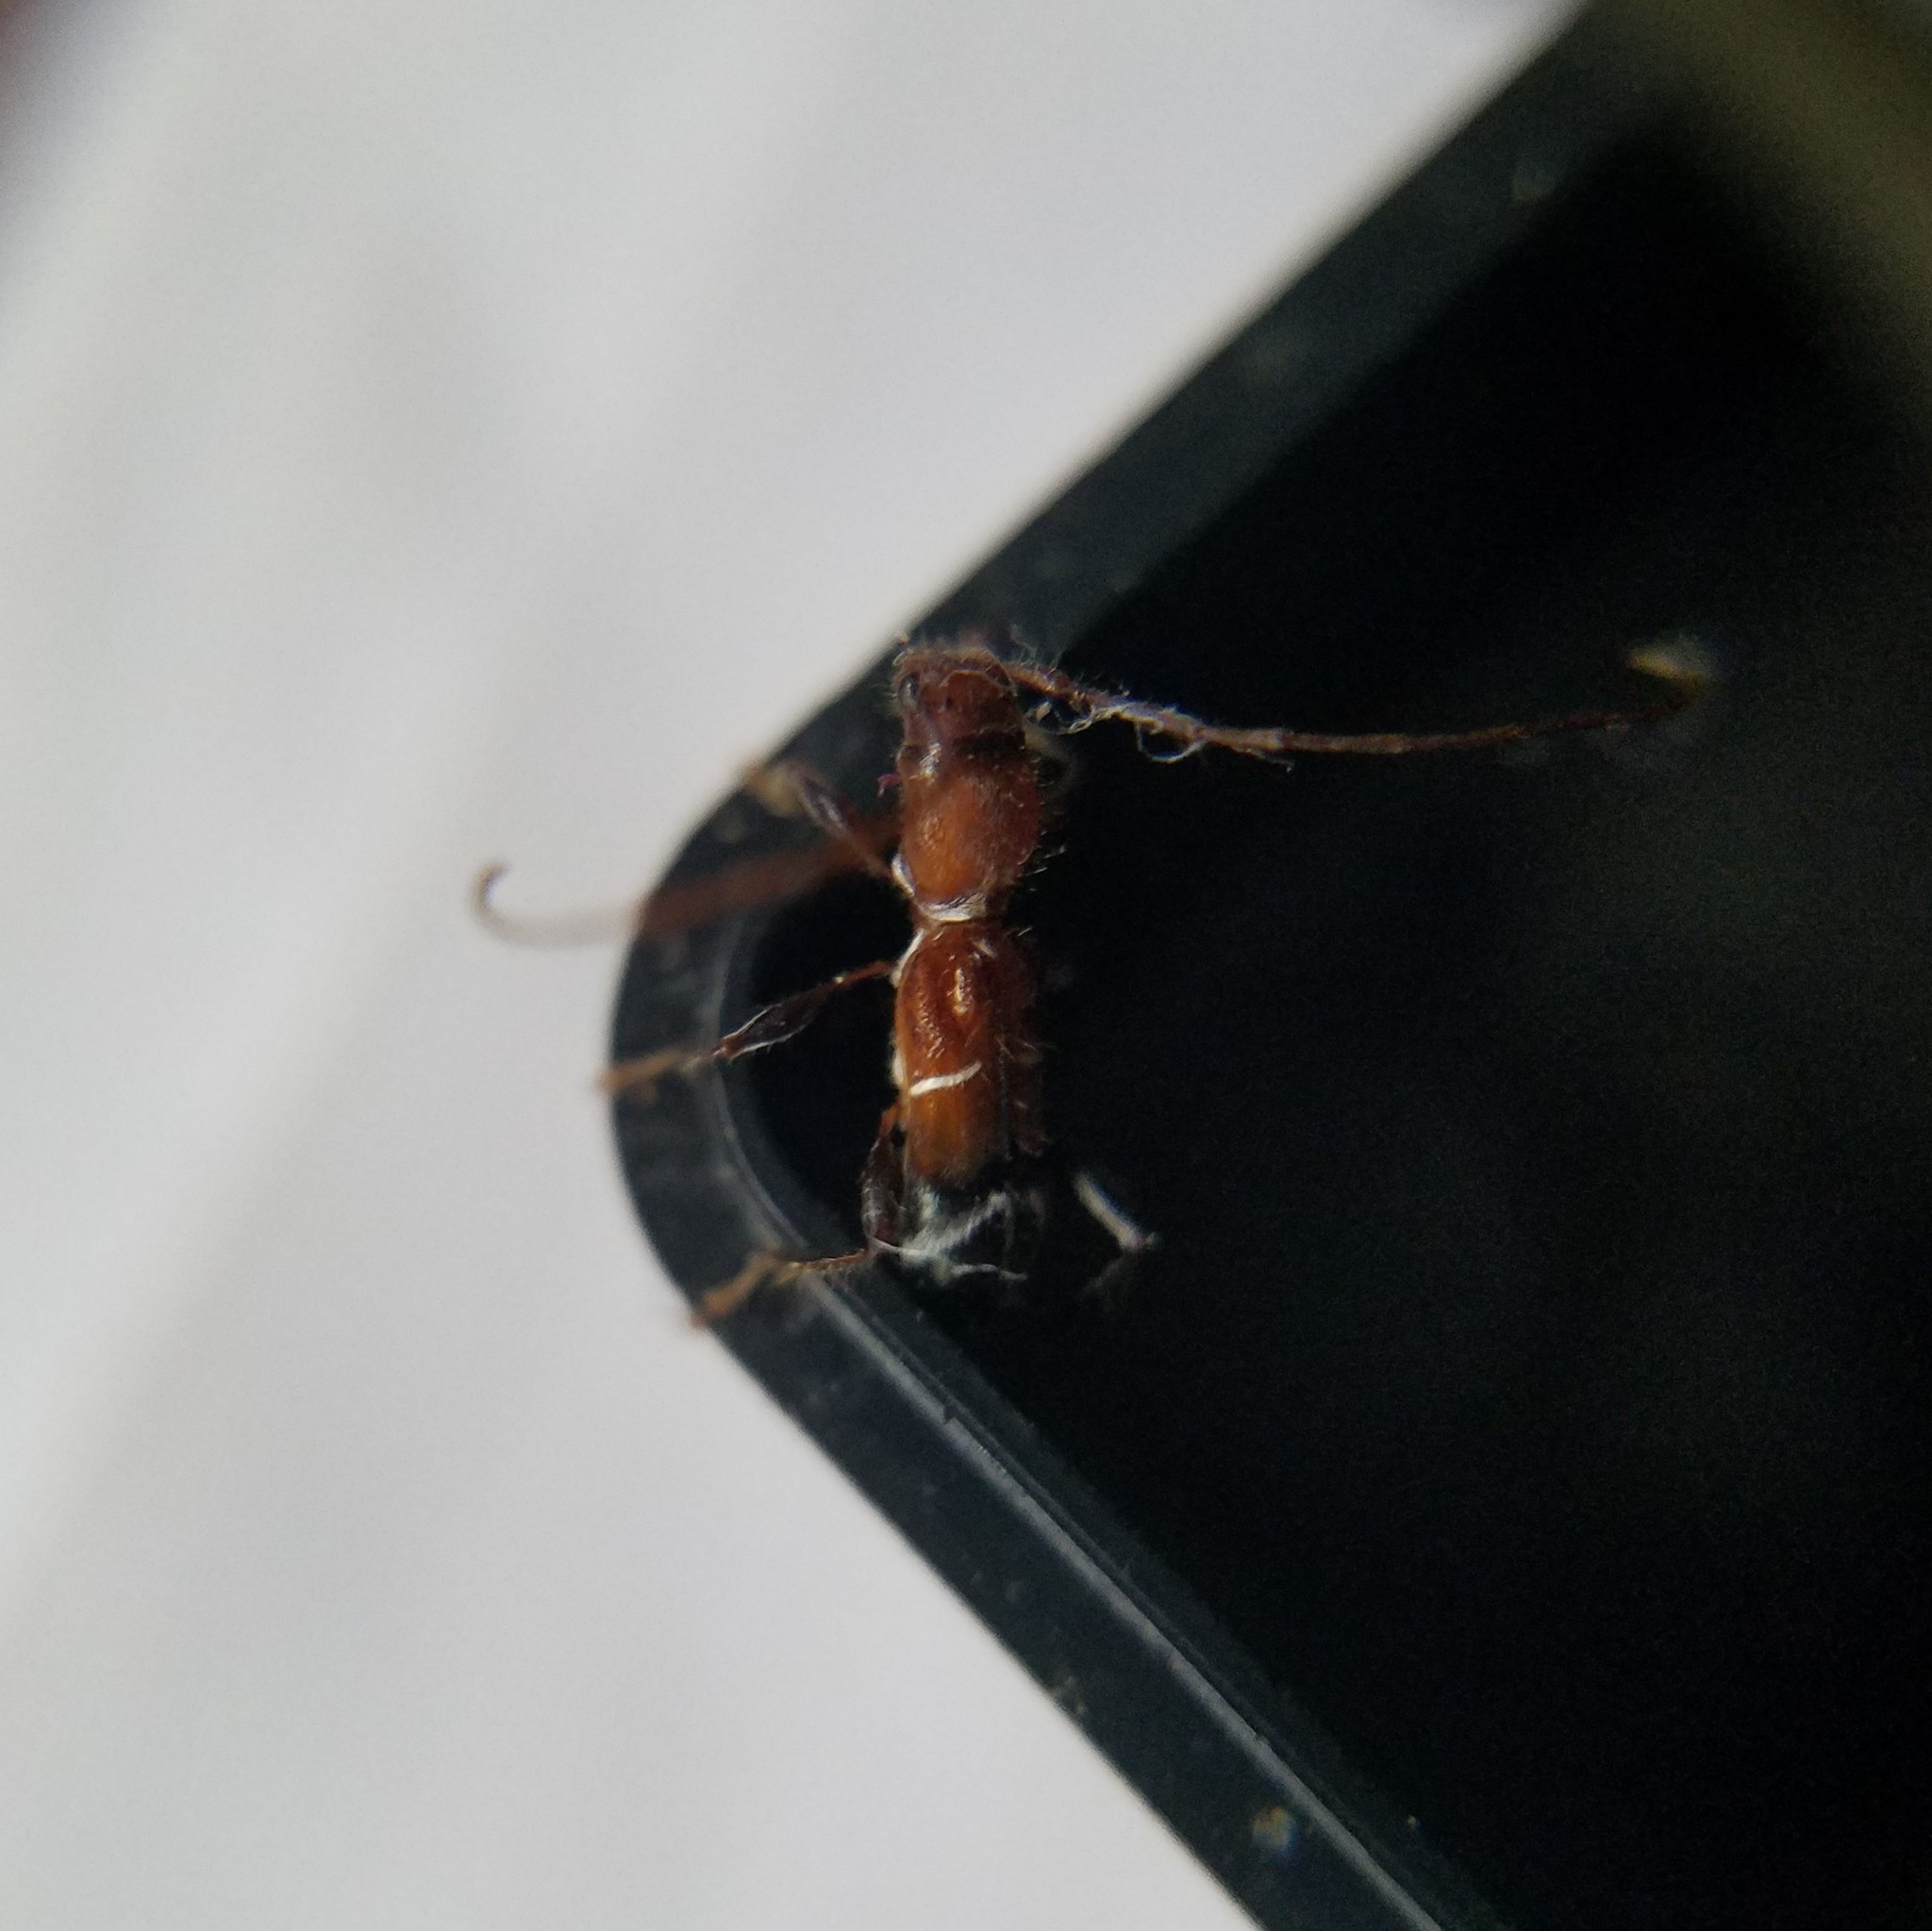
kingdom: Animalia
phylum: Arthropoda
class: Insecta
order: Coleoptera
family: Cerambycidae
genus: Euderces
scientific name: Euderces pini
